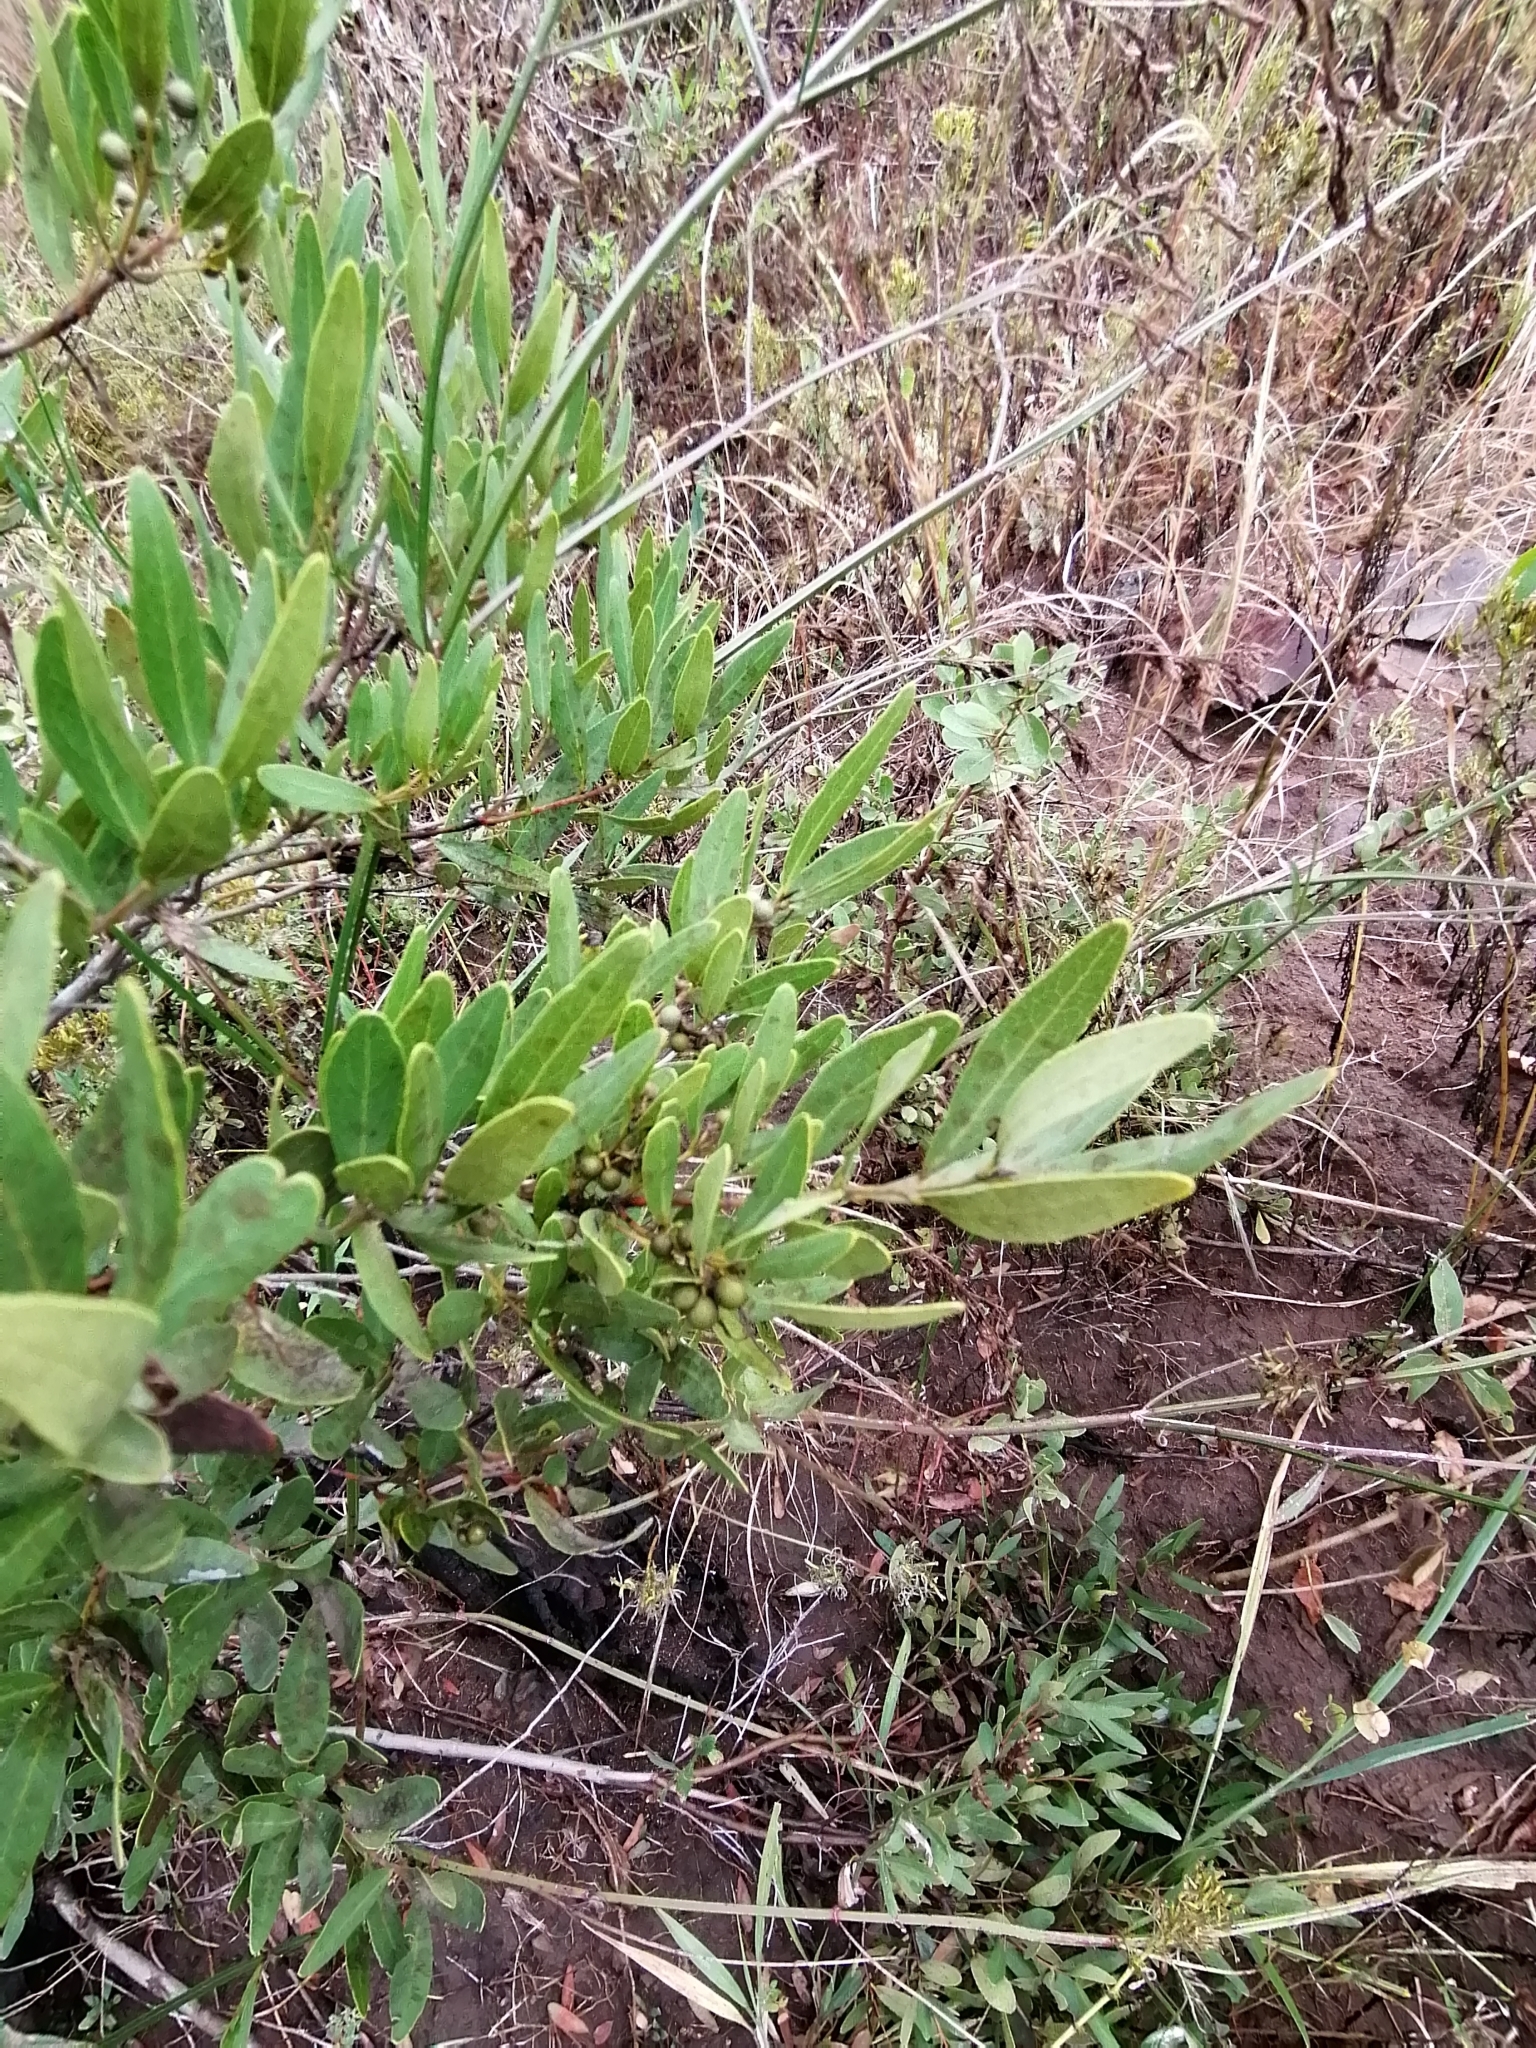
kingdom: Plantae
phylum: Tracheophyta
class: Magnoliopsida
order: Ericales
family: Ebenaceae
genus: Euclea
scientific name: Euclea crispa
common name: Blue guarri
